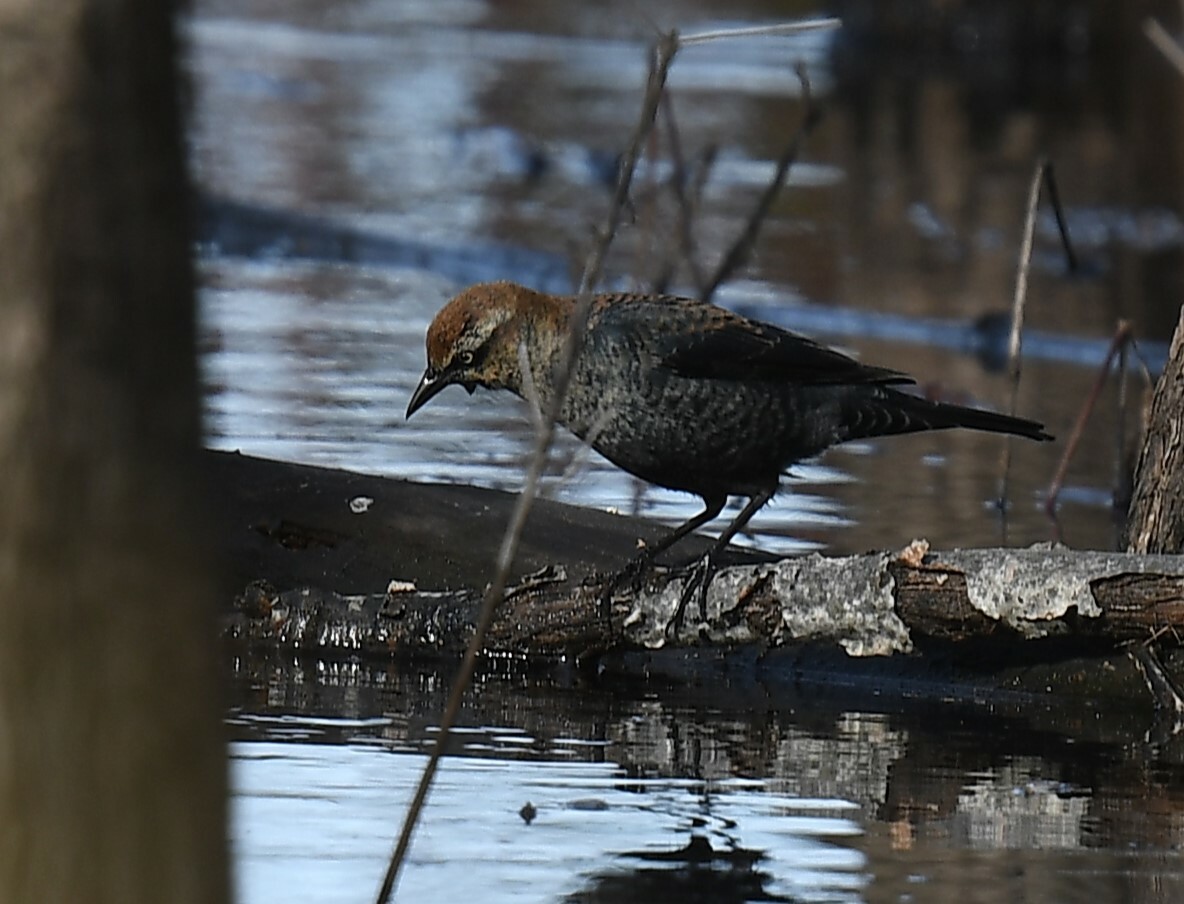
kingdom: Animalia
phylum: Chordata
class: Aves
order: Passeriformes
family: Icteridae
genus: Euphagus
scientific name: Euphagus carolinus
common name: Rusty blackbird
